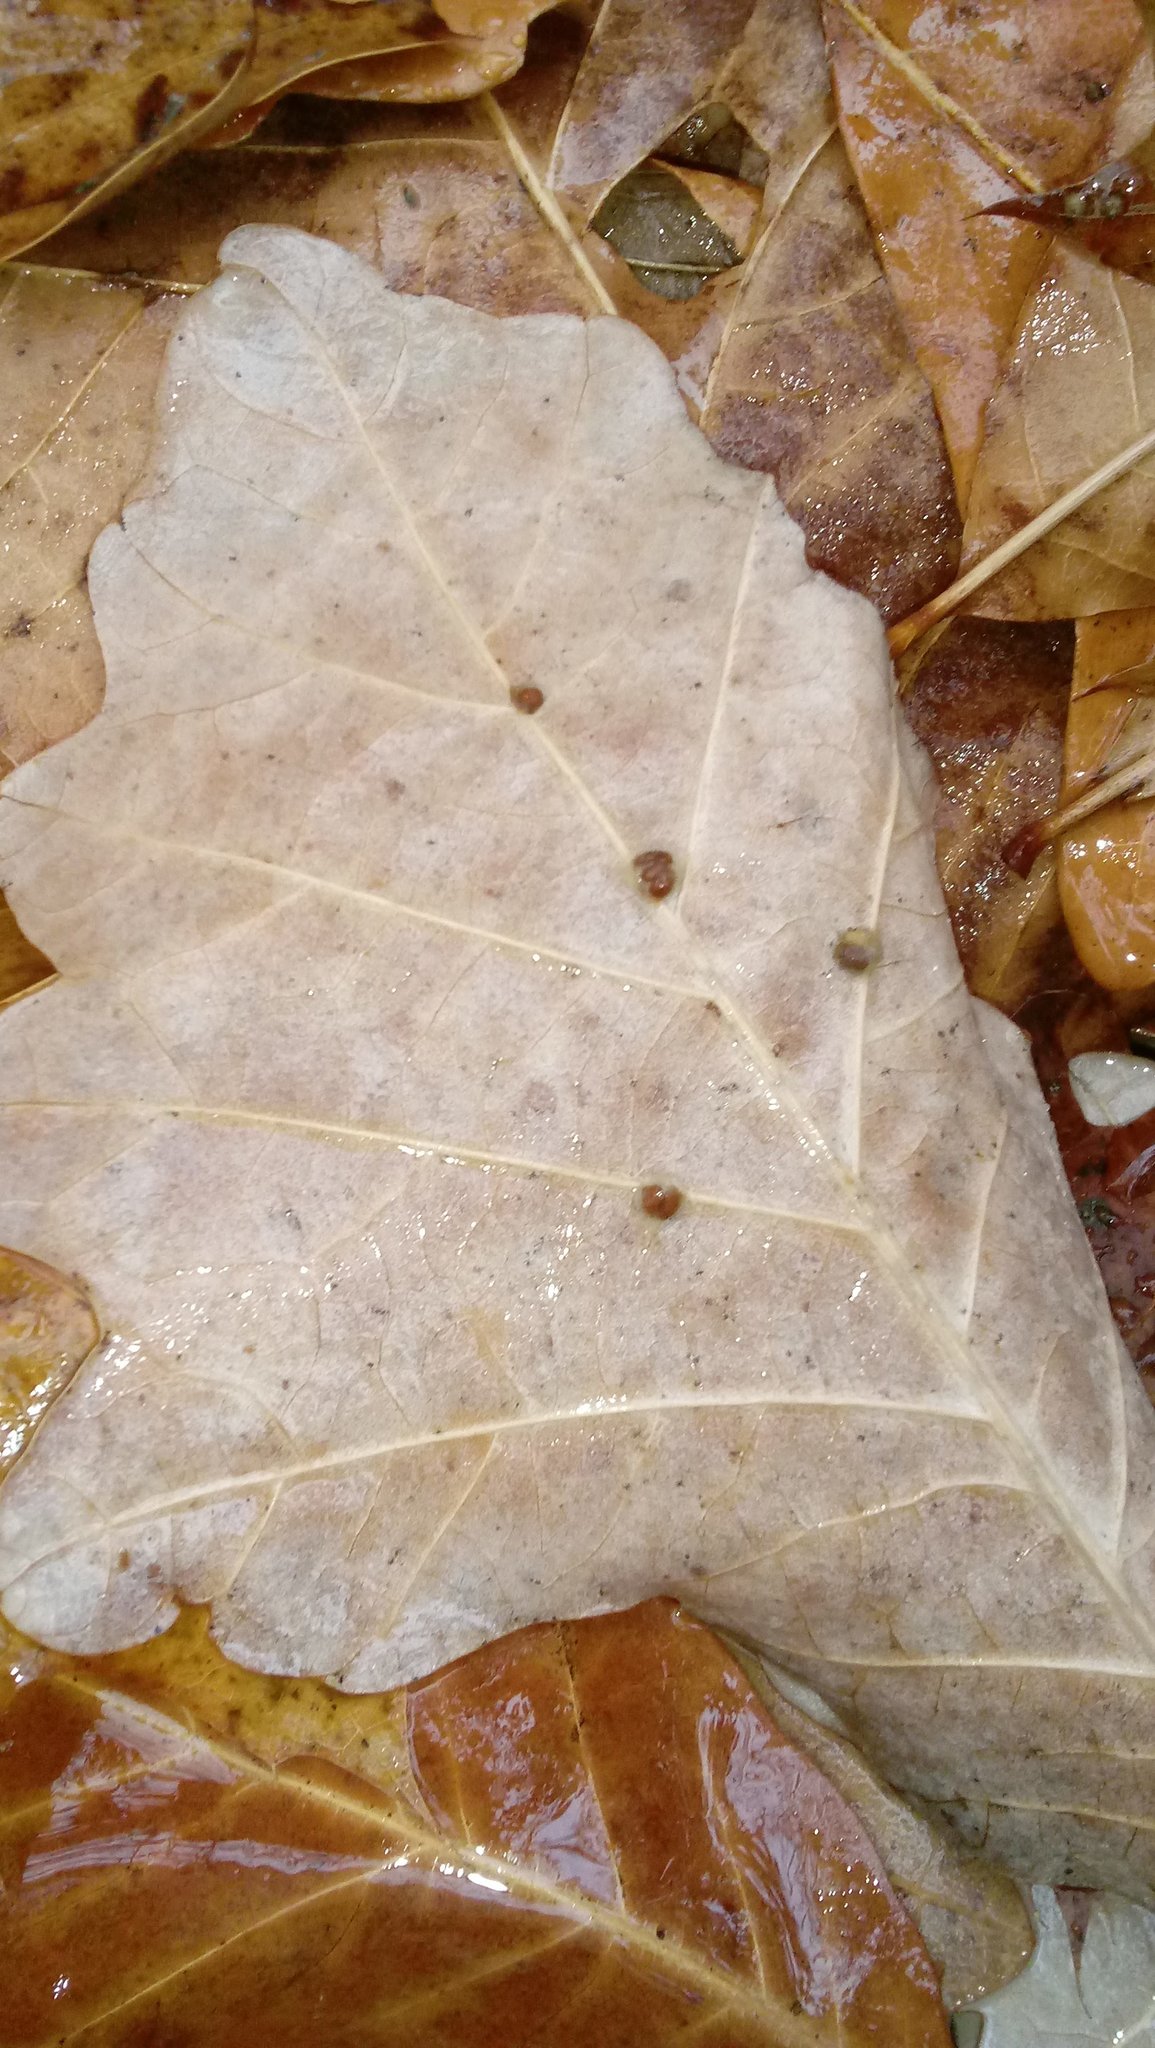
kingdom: Animalia
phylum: Arthropoda
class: Insecta
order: Hymenoptera
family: Cynipidae
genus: Andricus
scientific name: Andricus Druon ignotum
